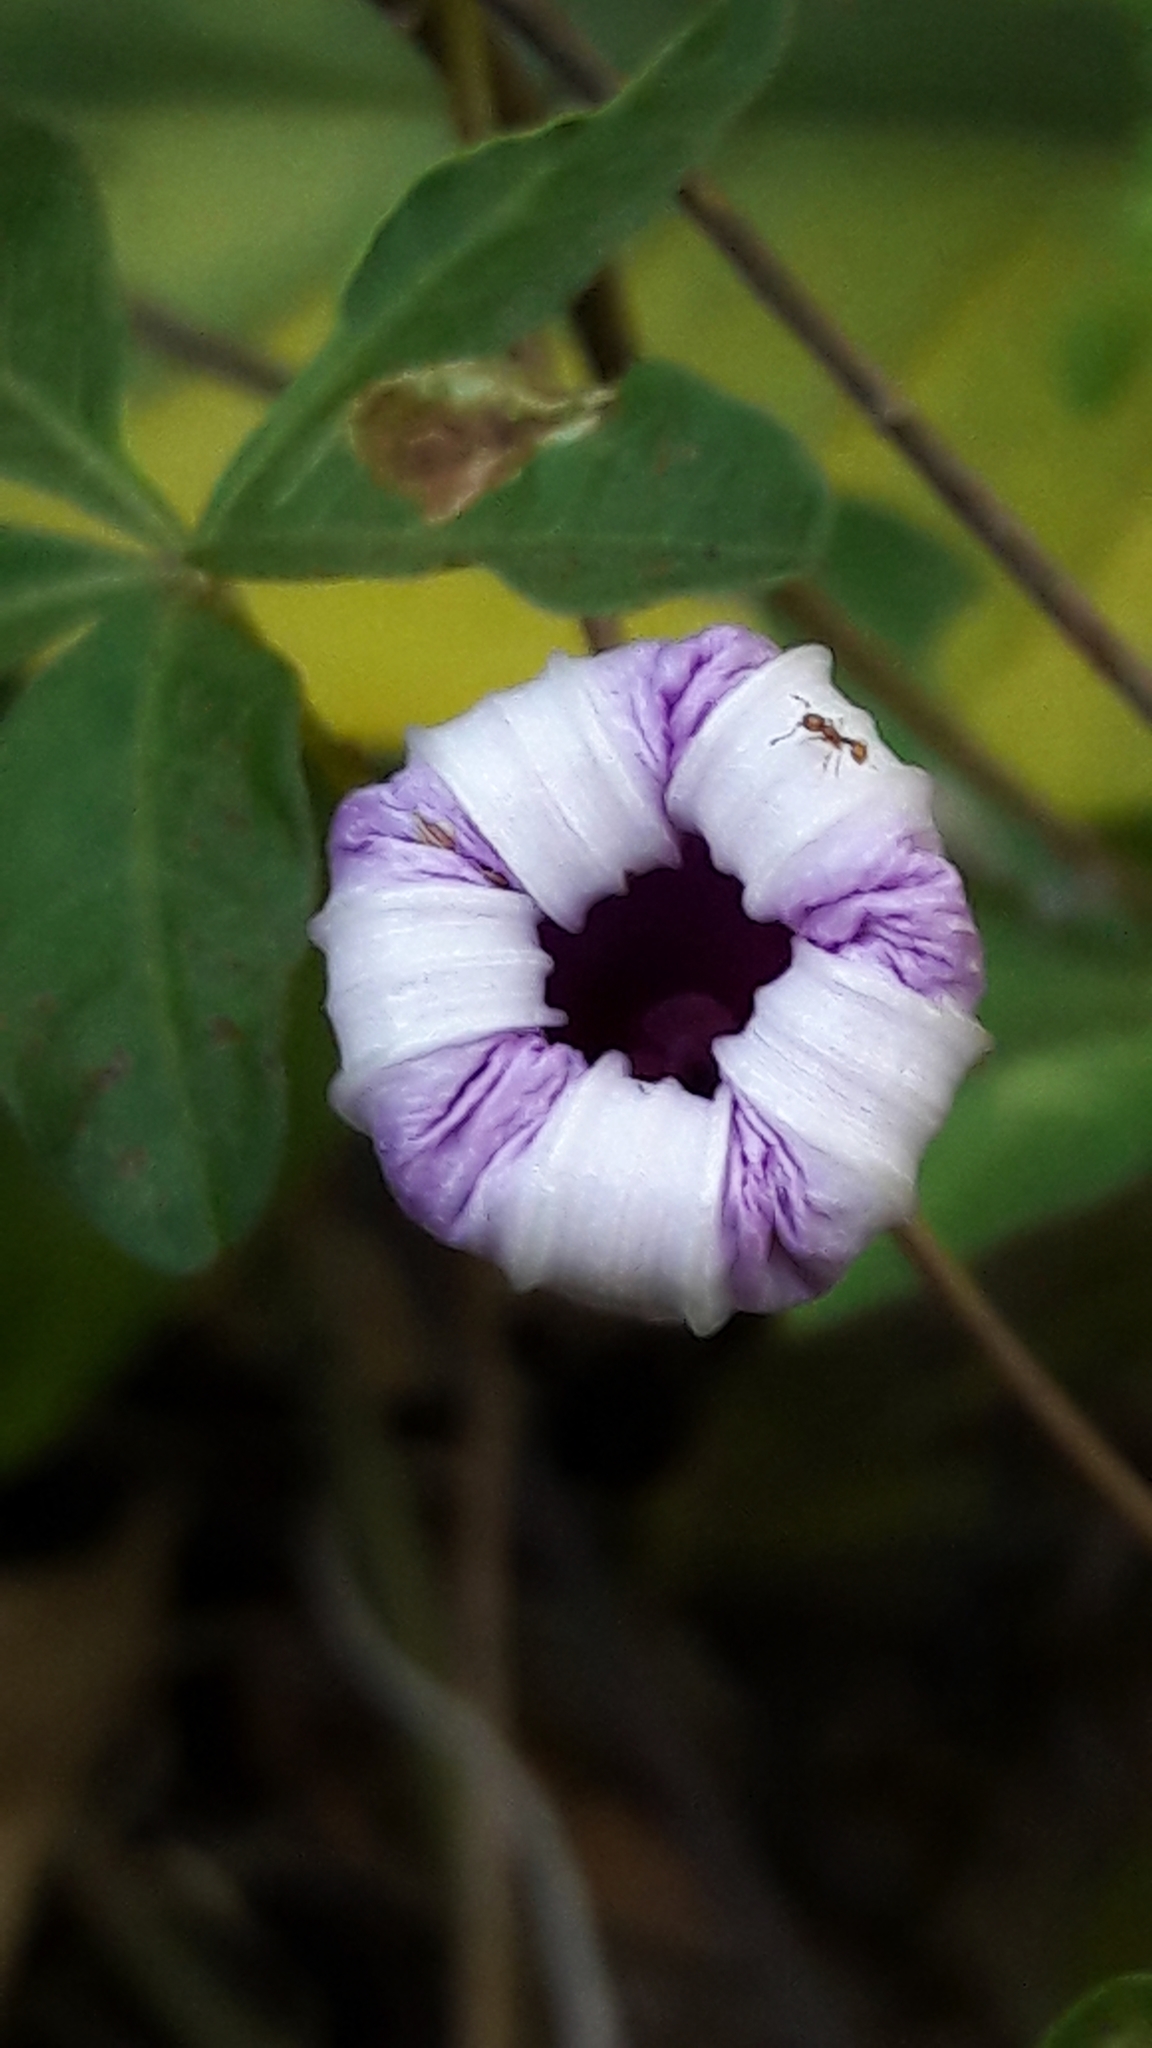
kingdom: Plantae
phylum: Tracheophyta
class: Magnoliopsida
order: Solanales
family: Convolvulaceae
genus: Ipomoea
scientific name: Ipomoea cairica
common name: Mile a minute vine
